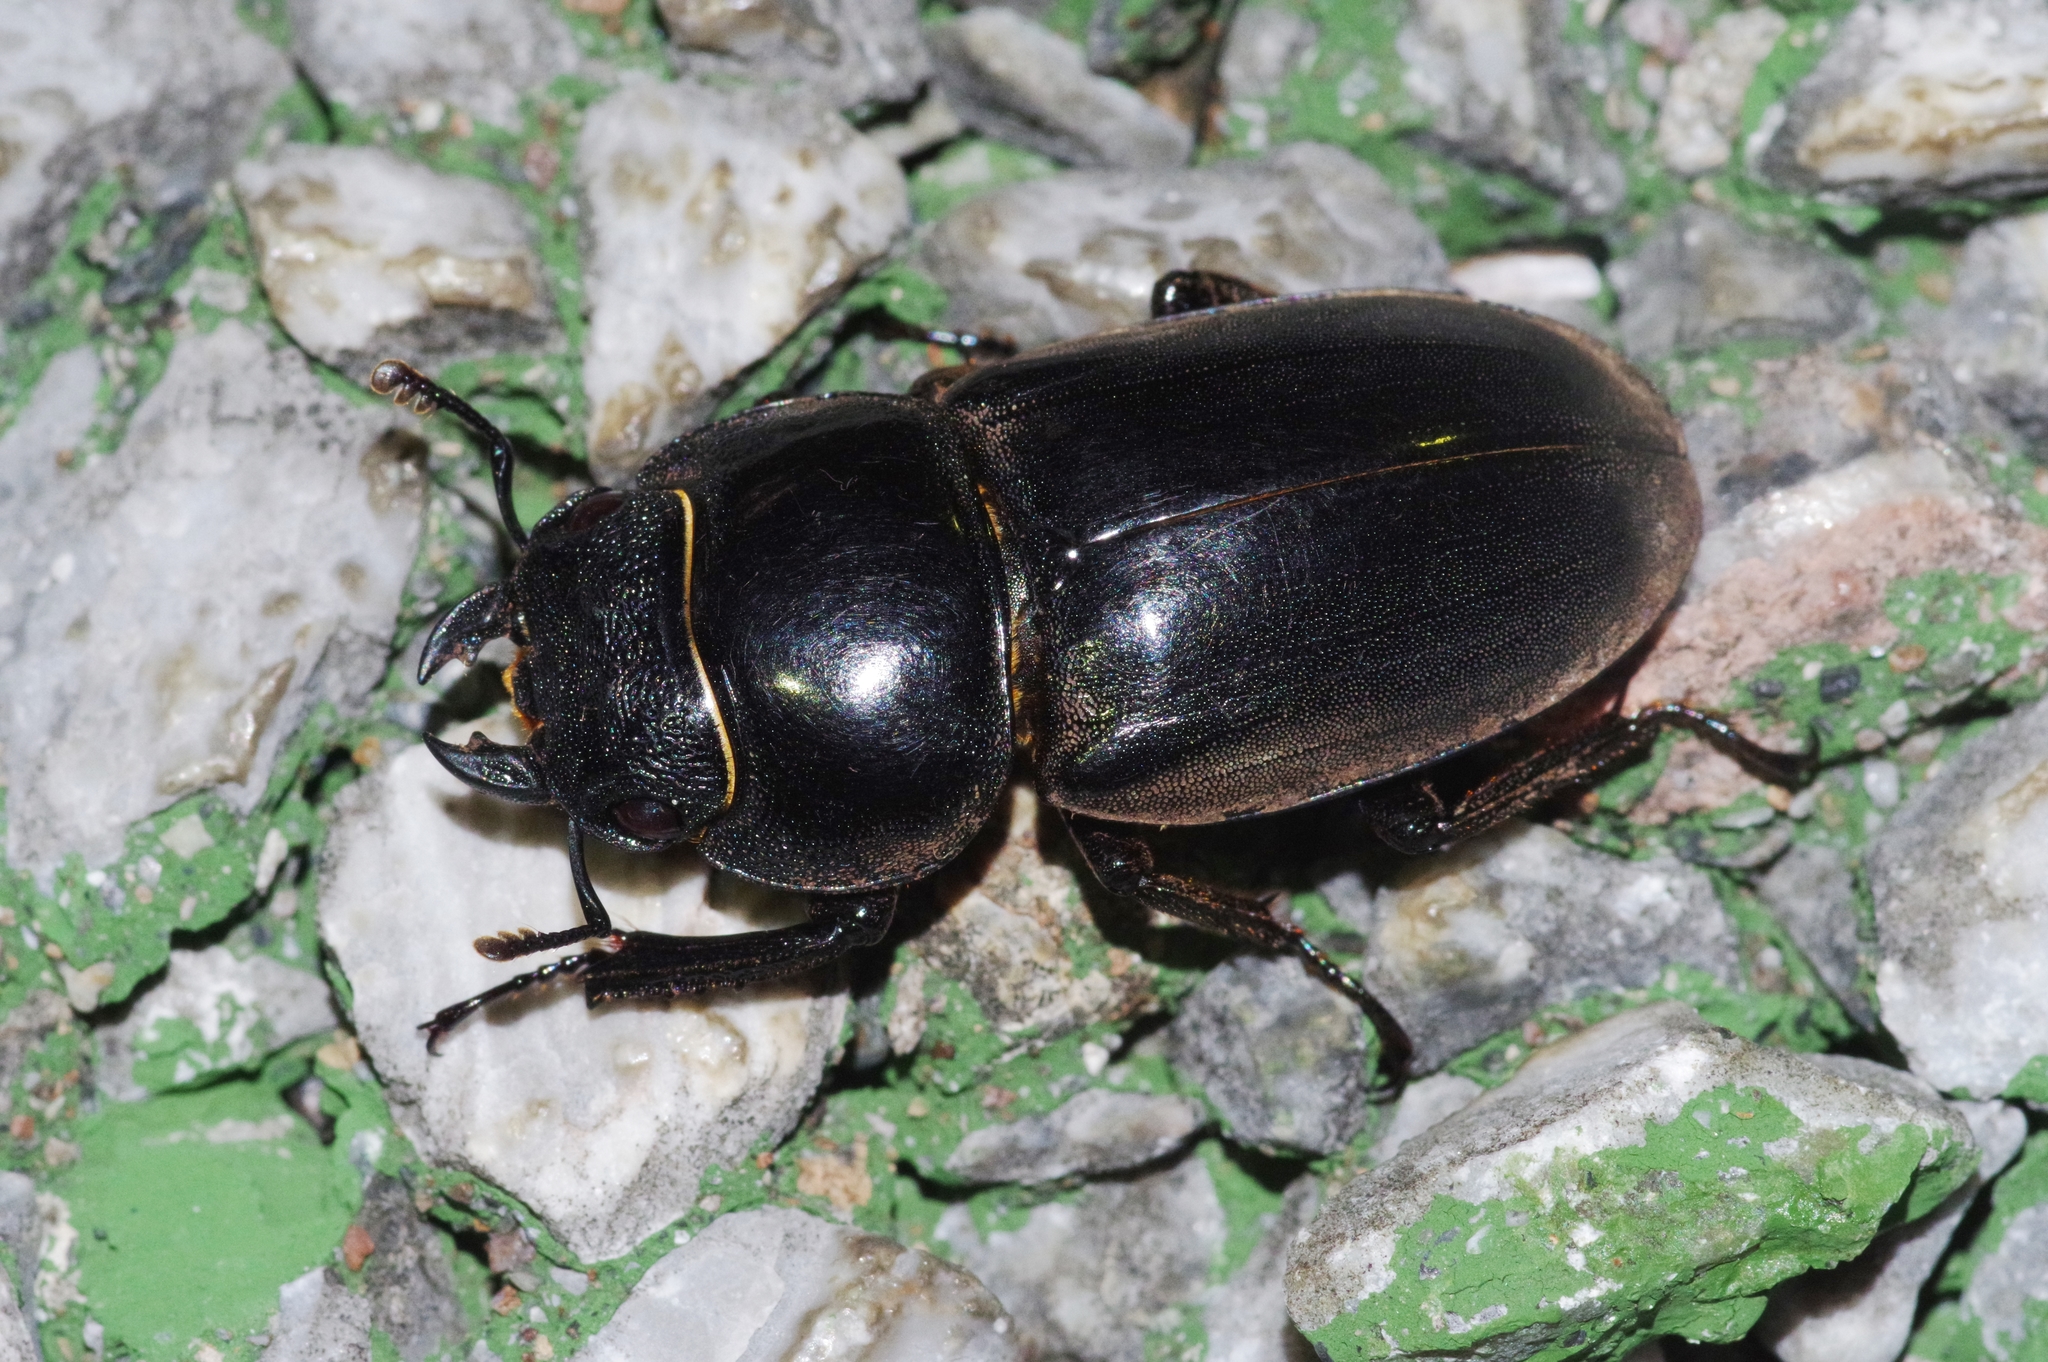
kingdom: Animalia
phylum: Arthropoda
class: Insecta
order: Coleoptera
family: Lucanidae
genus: Serrognathus
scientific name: Serrognathus titanus
